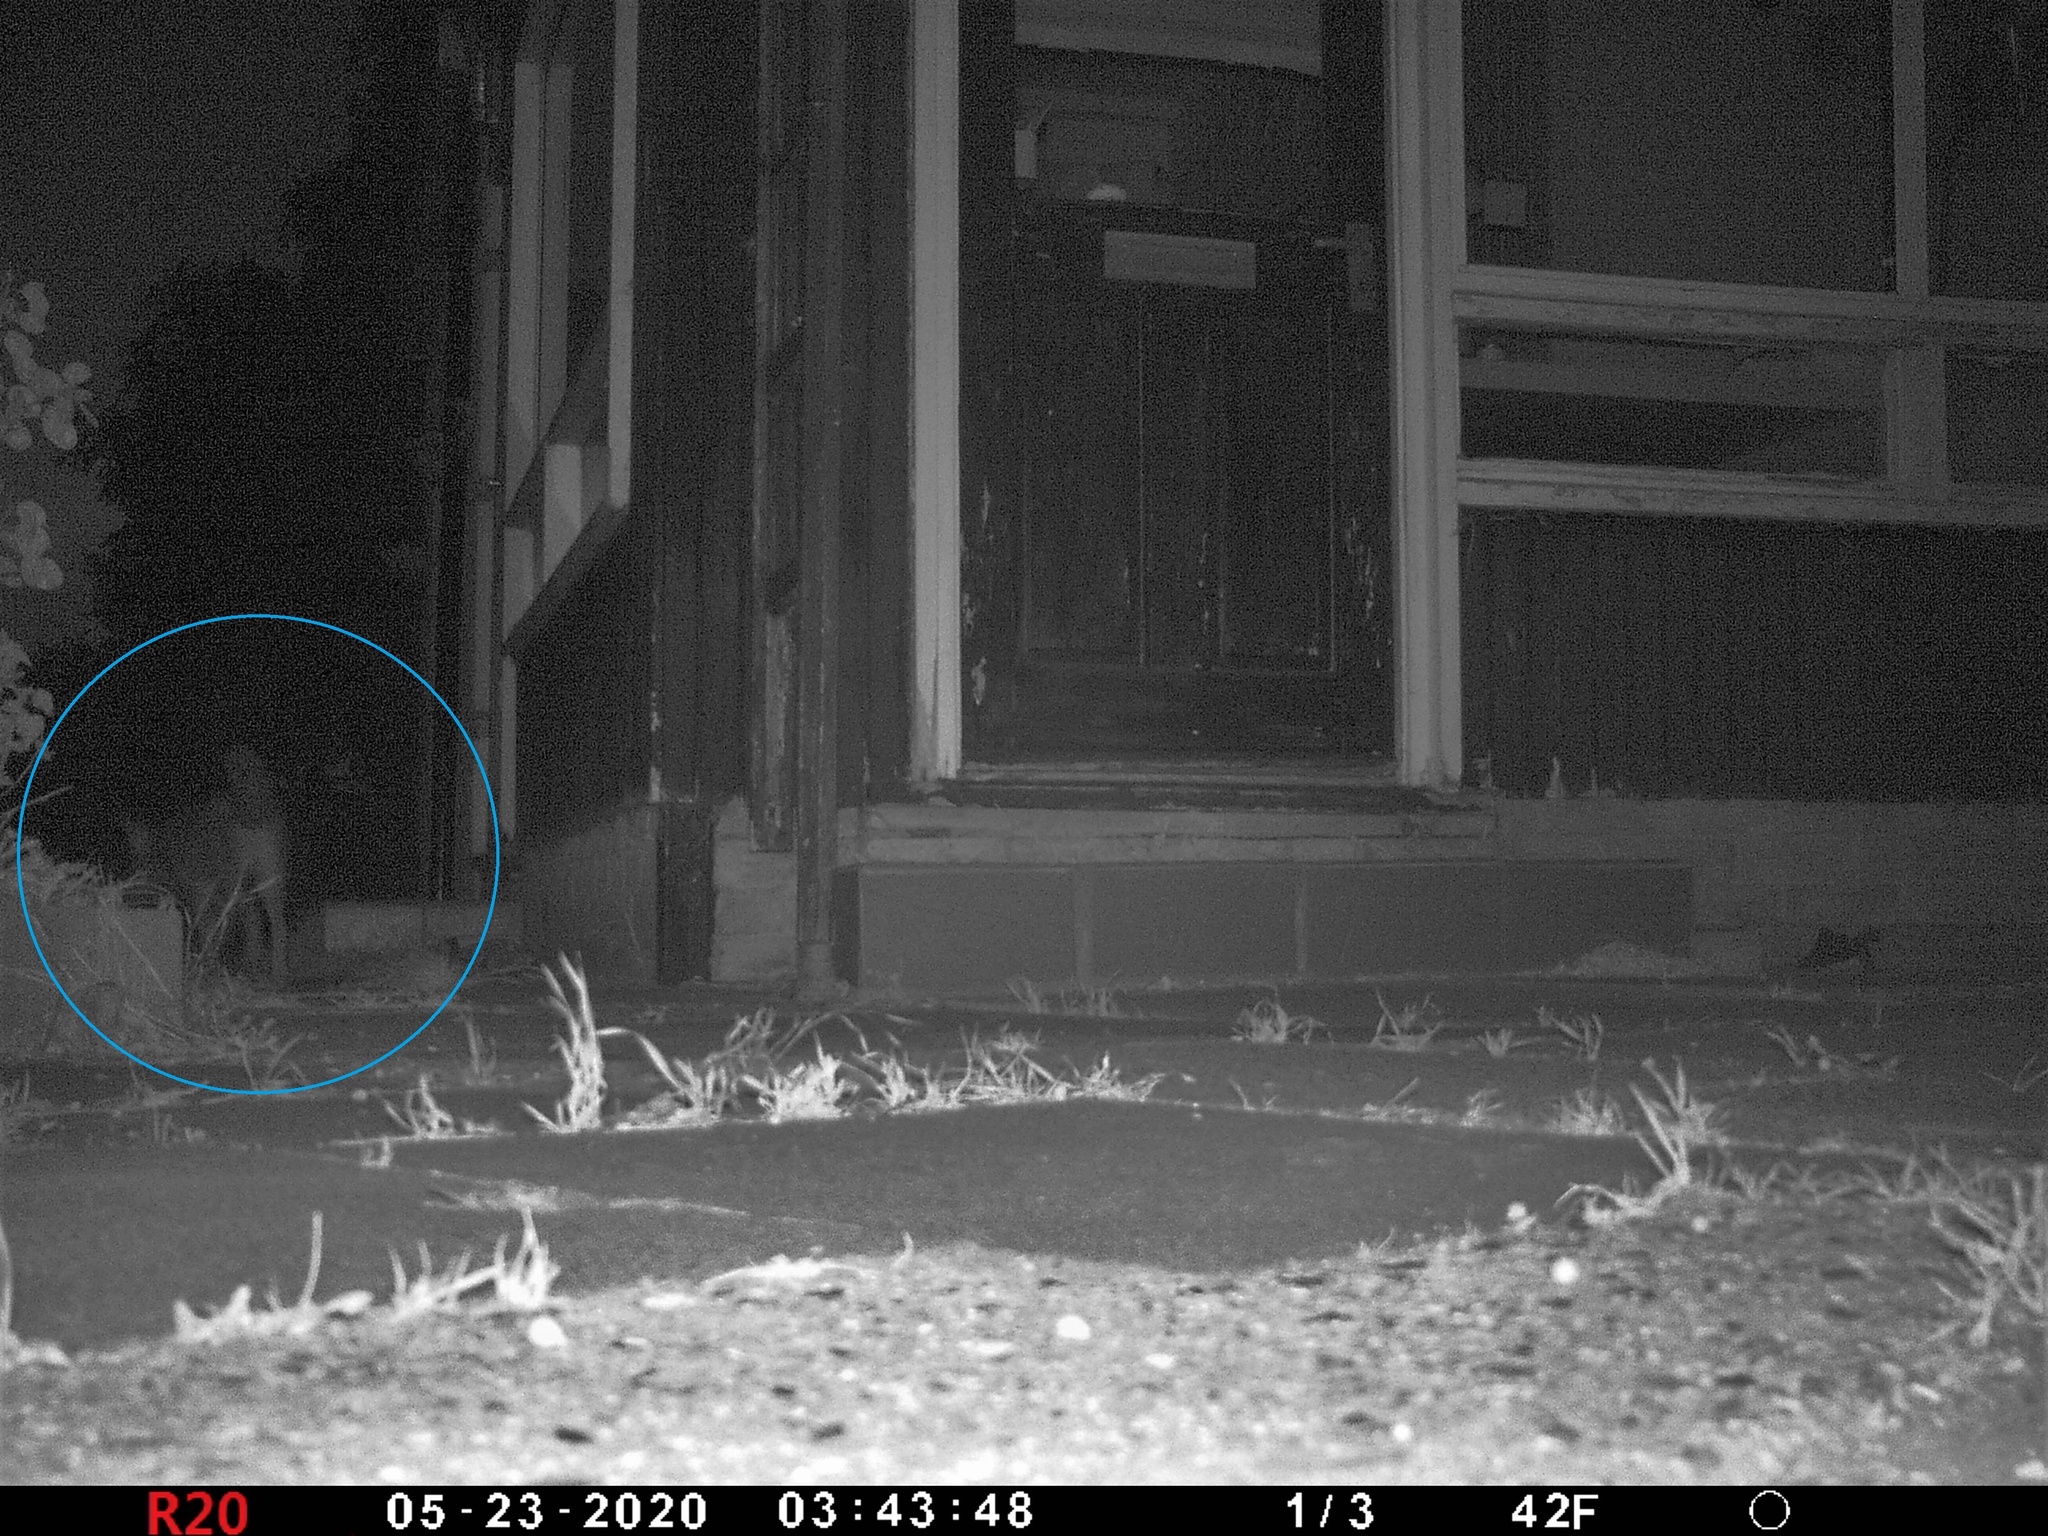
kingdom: Animalia
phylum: Chordata
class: Mammalia
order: Carnivora
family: Canidae
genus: Vulpes
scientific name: Vulpes vulpes
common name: Red fox
